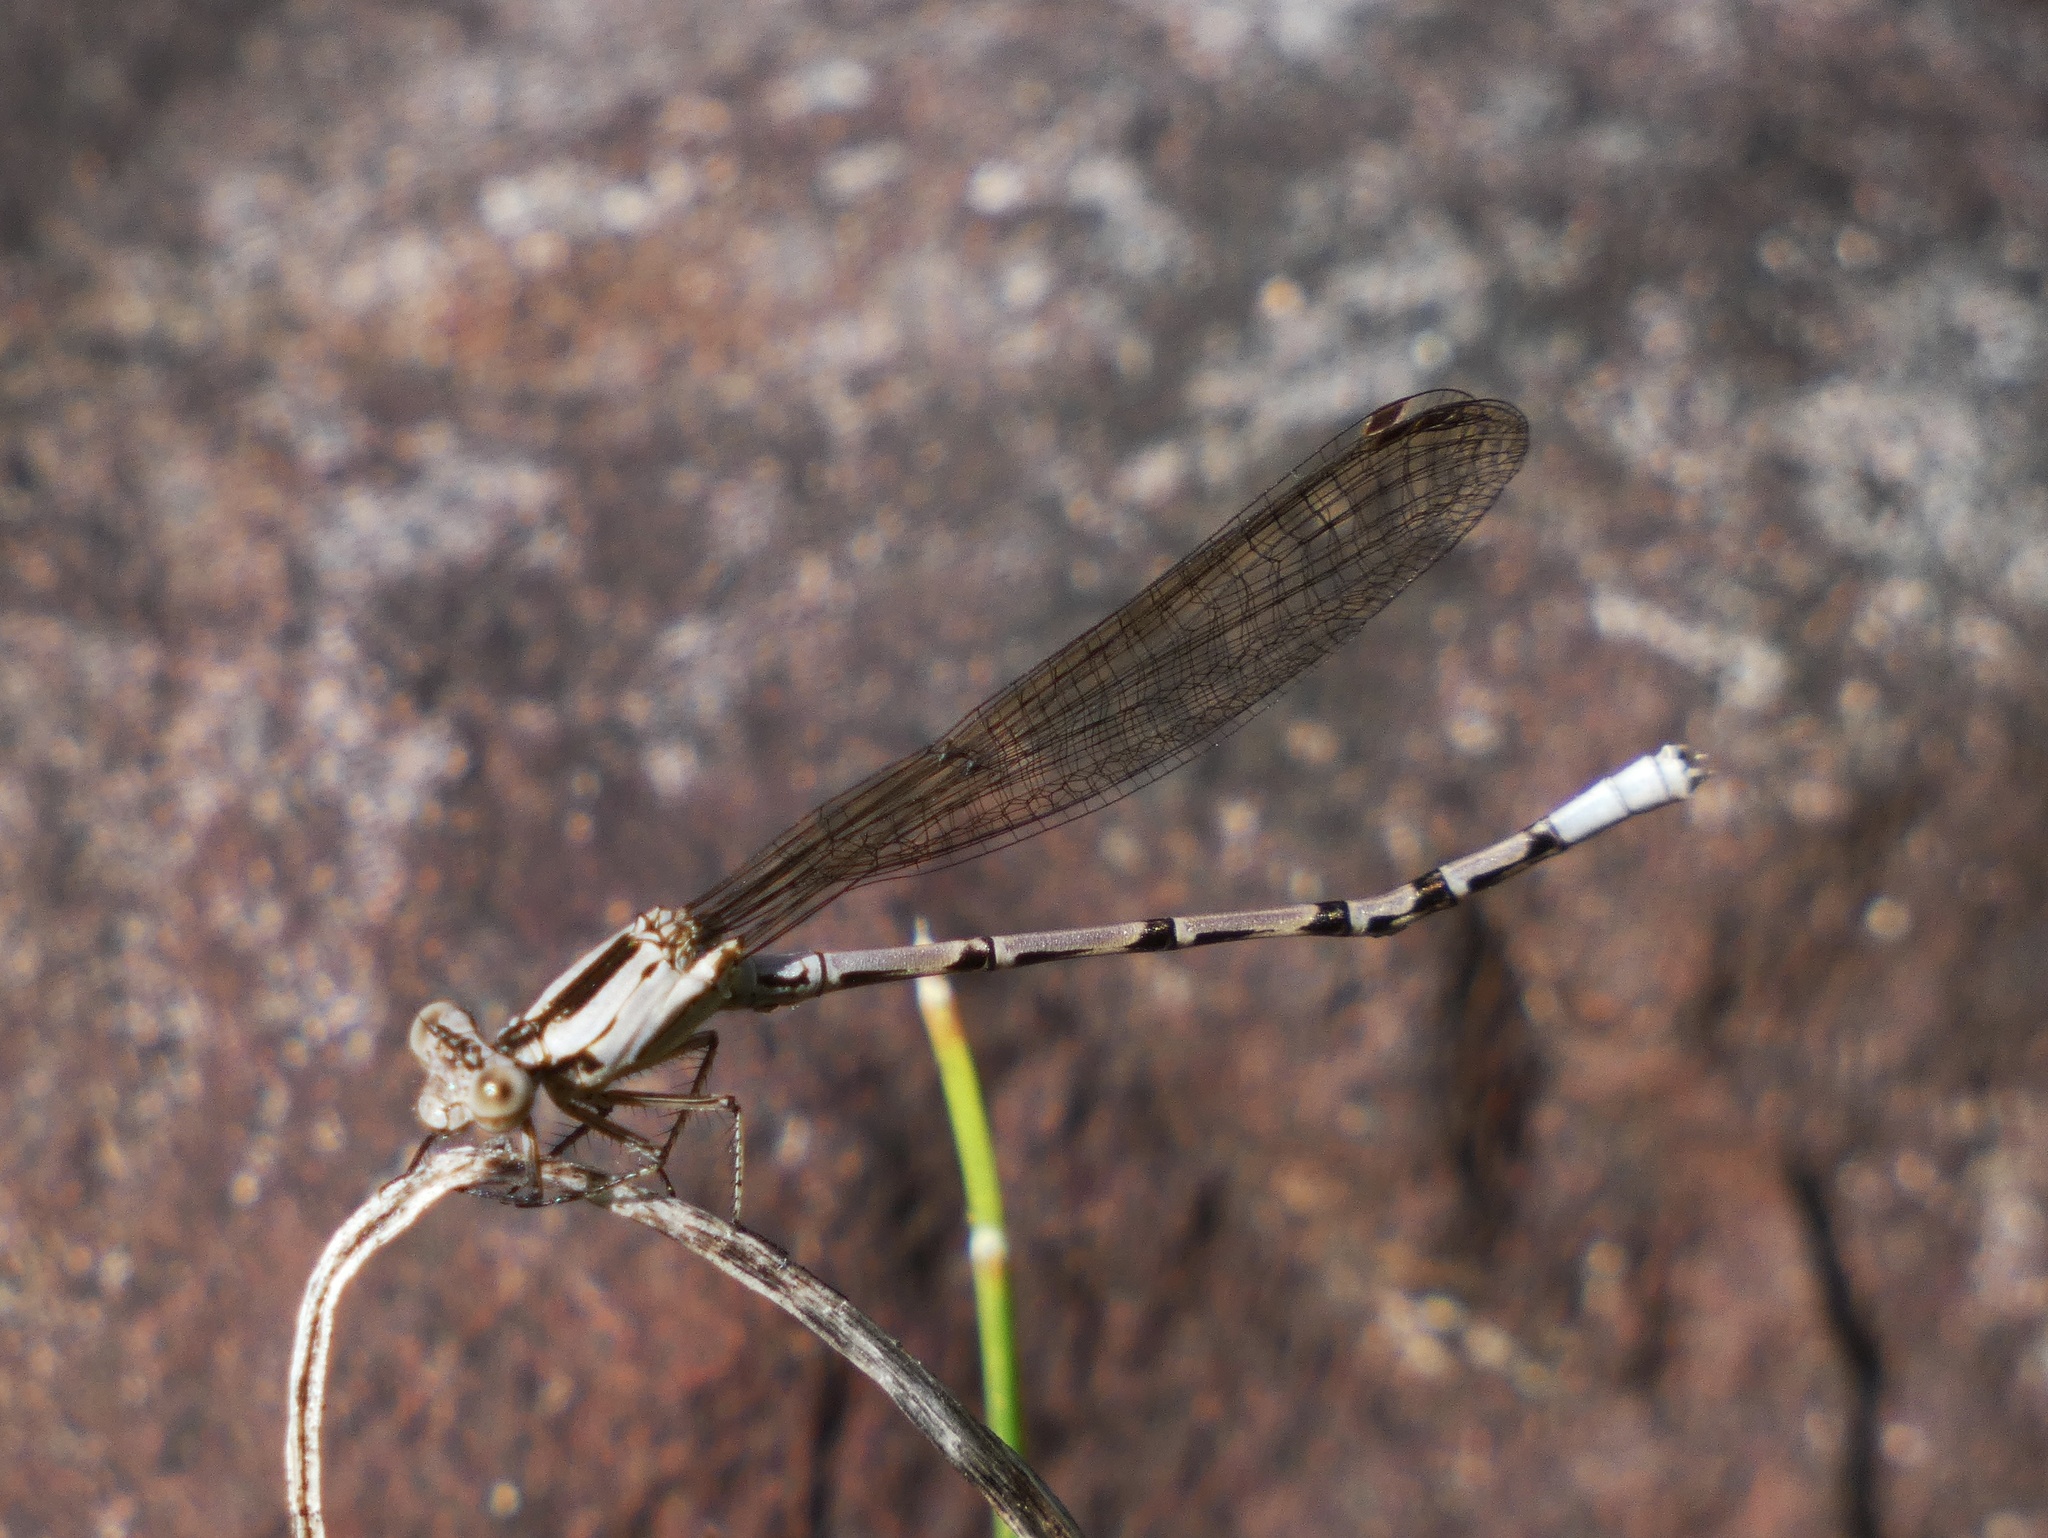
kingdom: Animalia
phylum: Arthropoda
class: Insecta
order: Odonata
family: Coenagrionidae
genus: Argia
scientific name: Argia elongata
